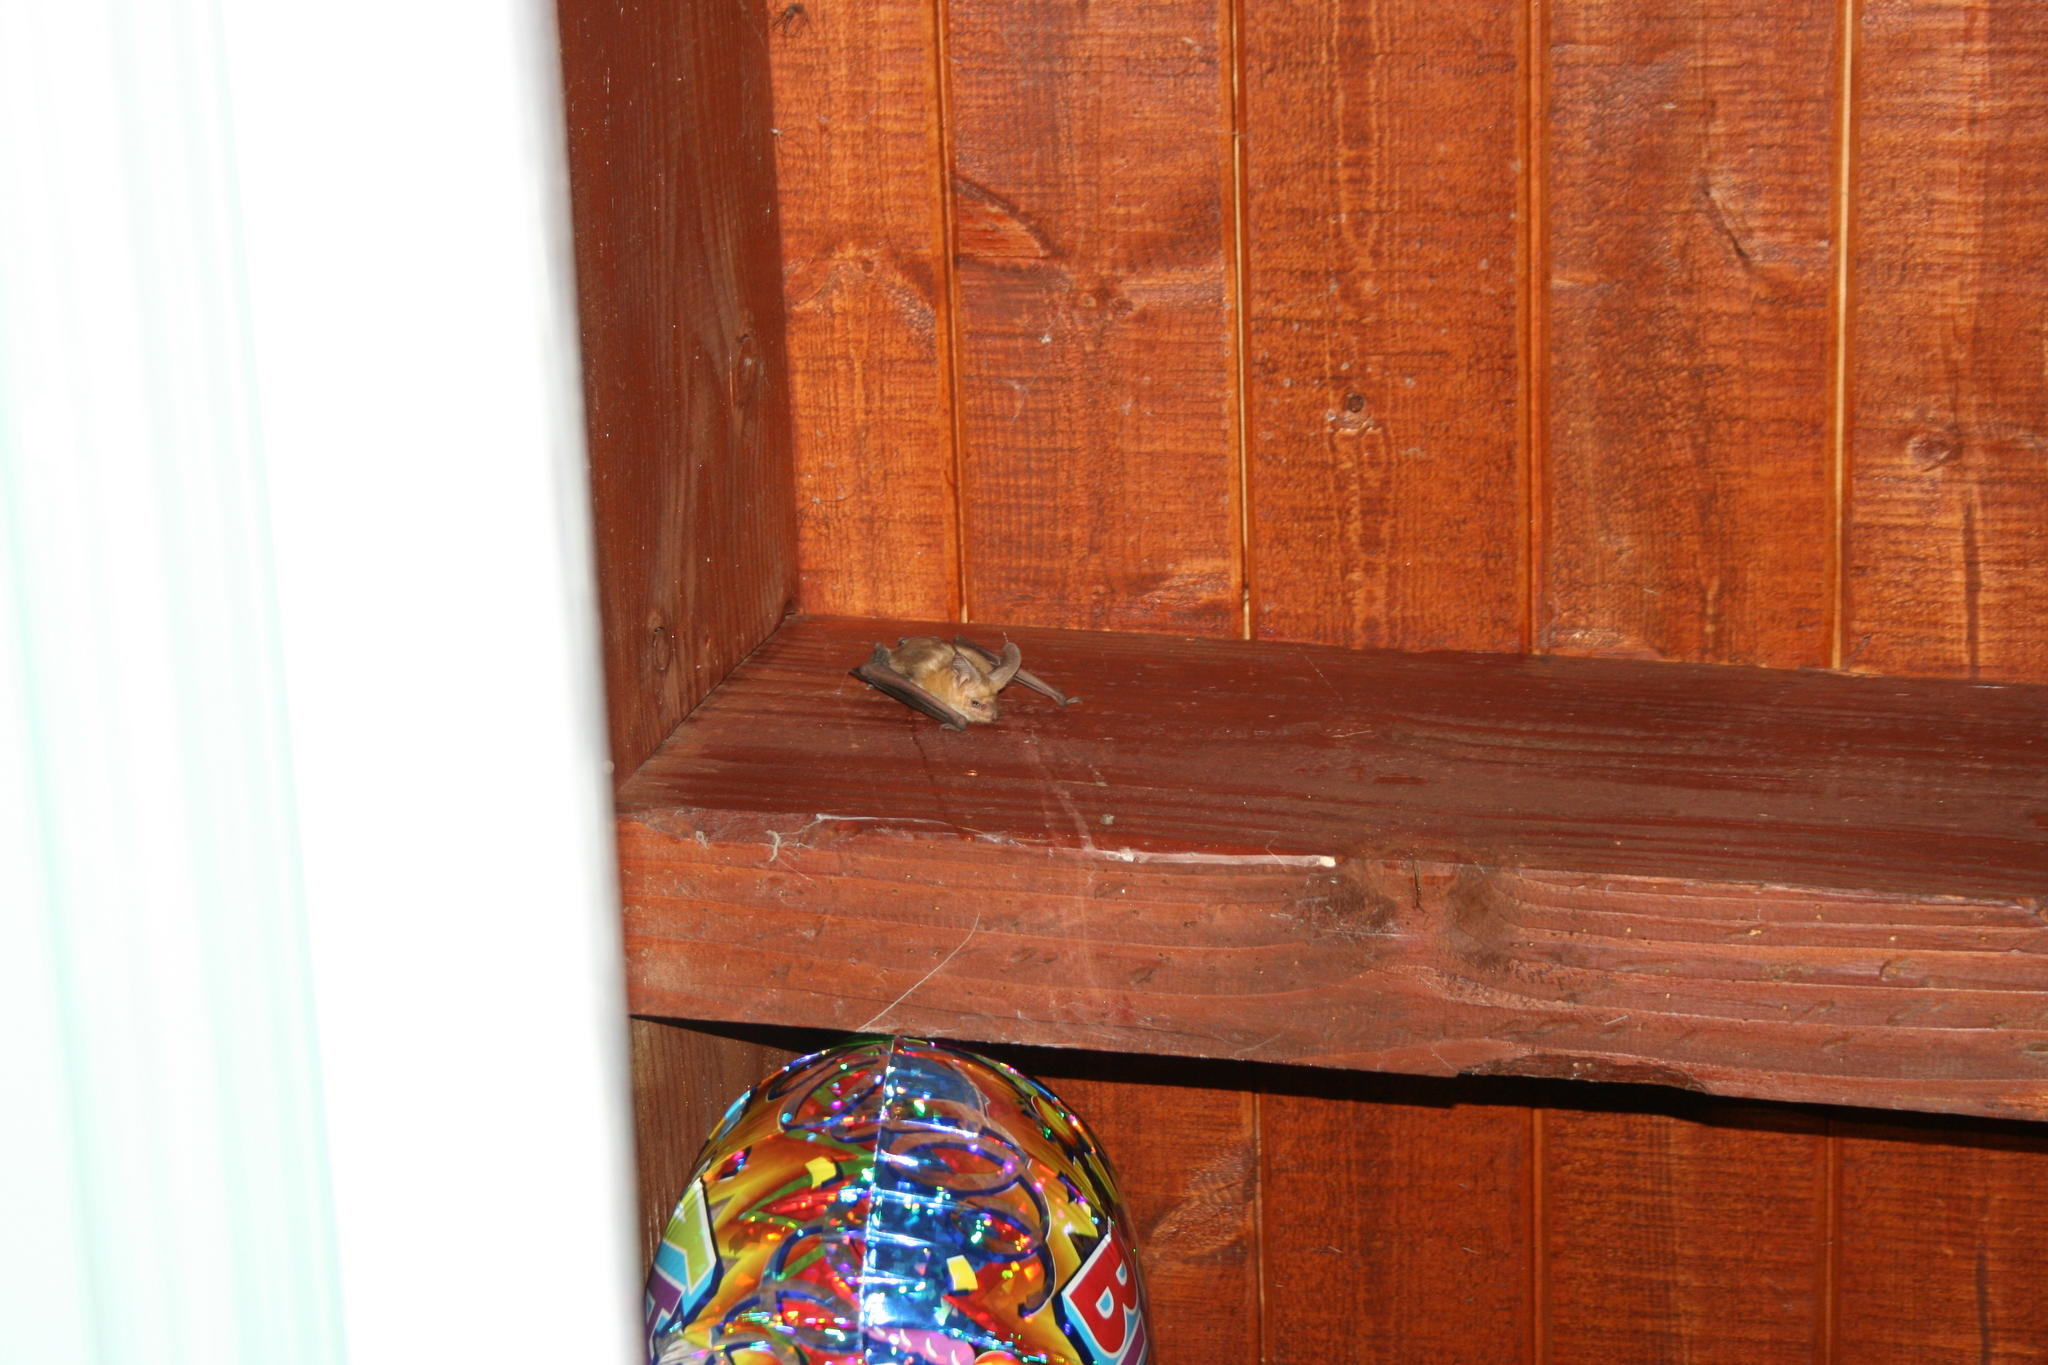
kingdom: Animalia
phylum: Chordata
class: Mammalia
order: Chiroptera
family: Vespertilionidae
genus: Antrozous
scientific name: Antrozous pallidus
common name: Pallid bat
